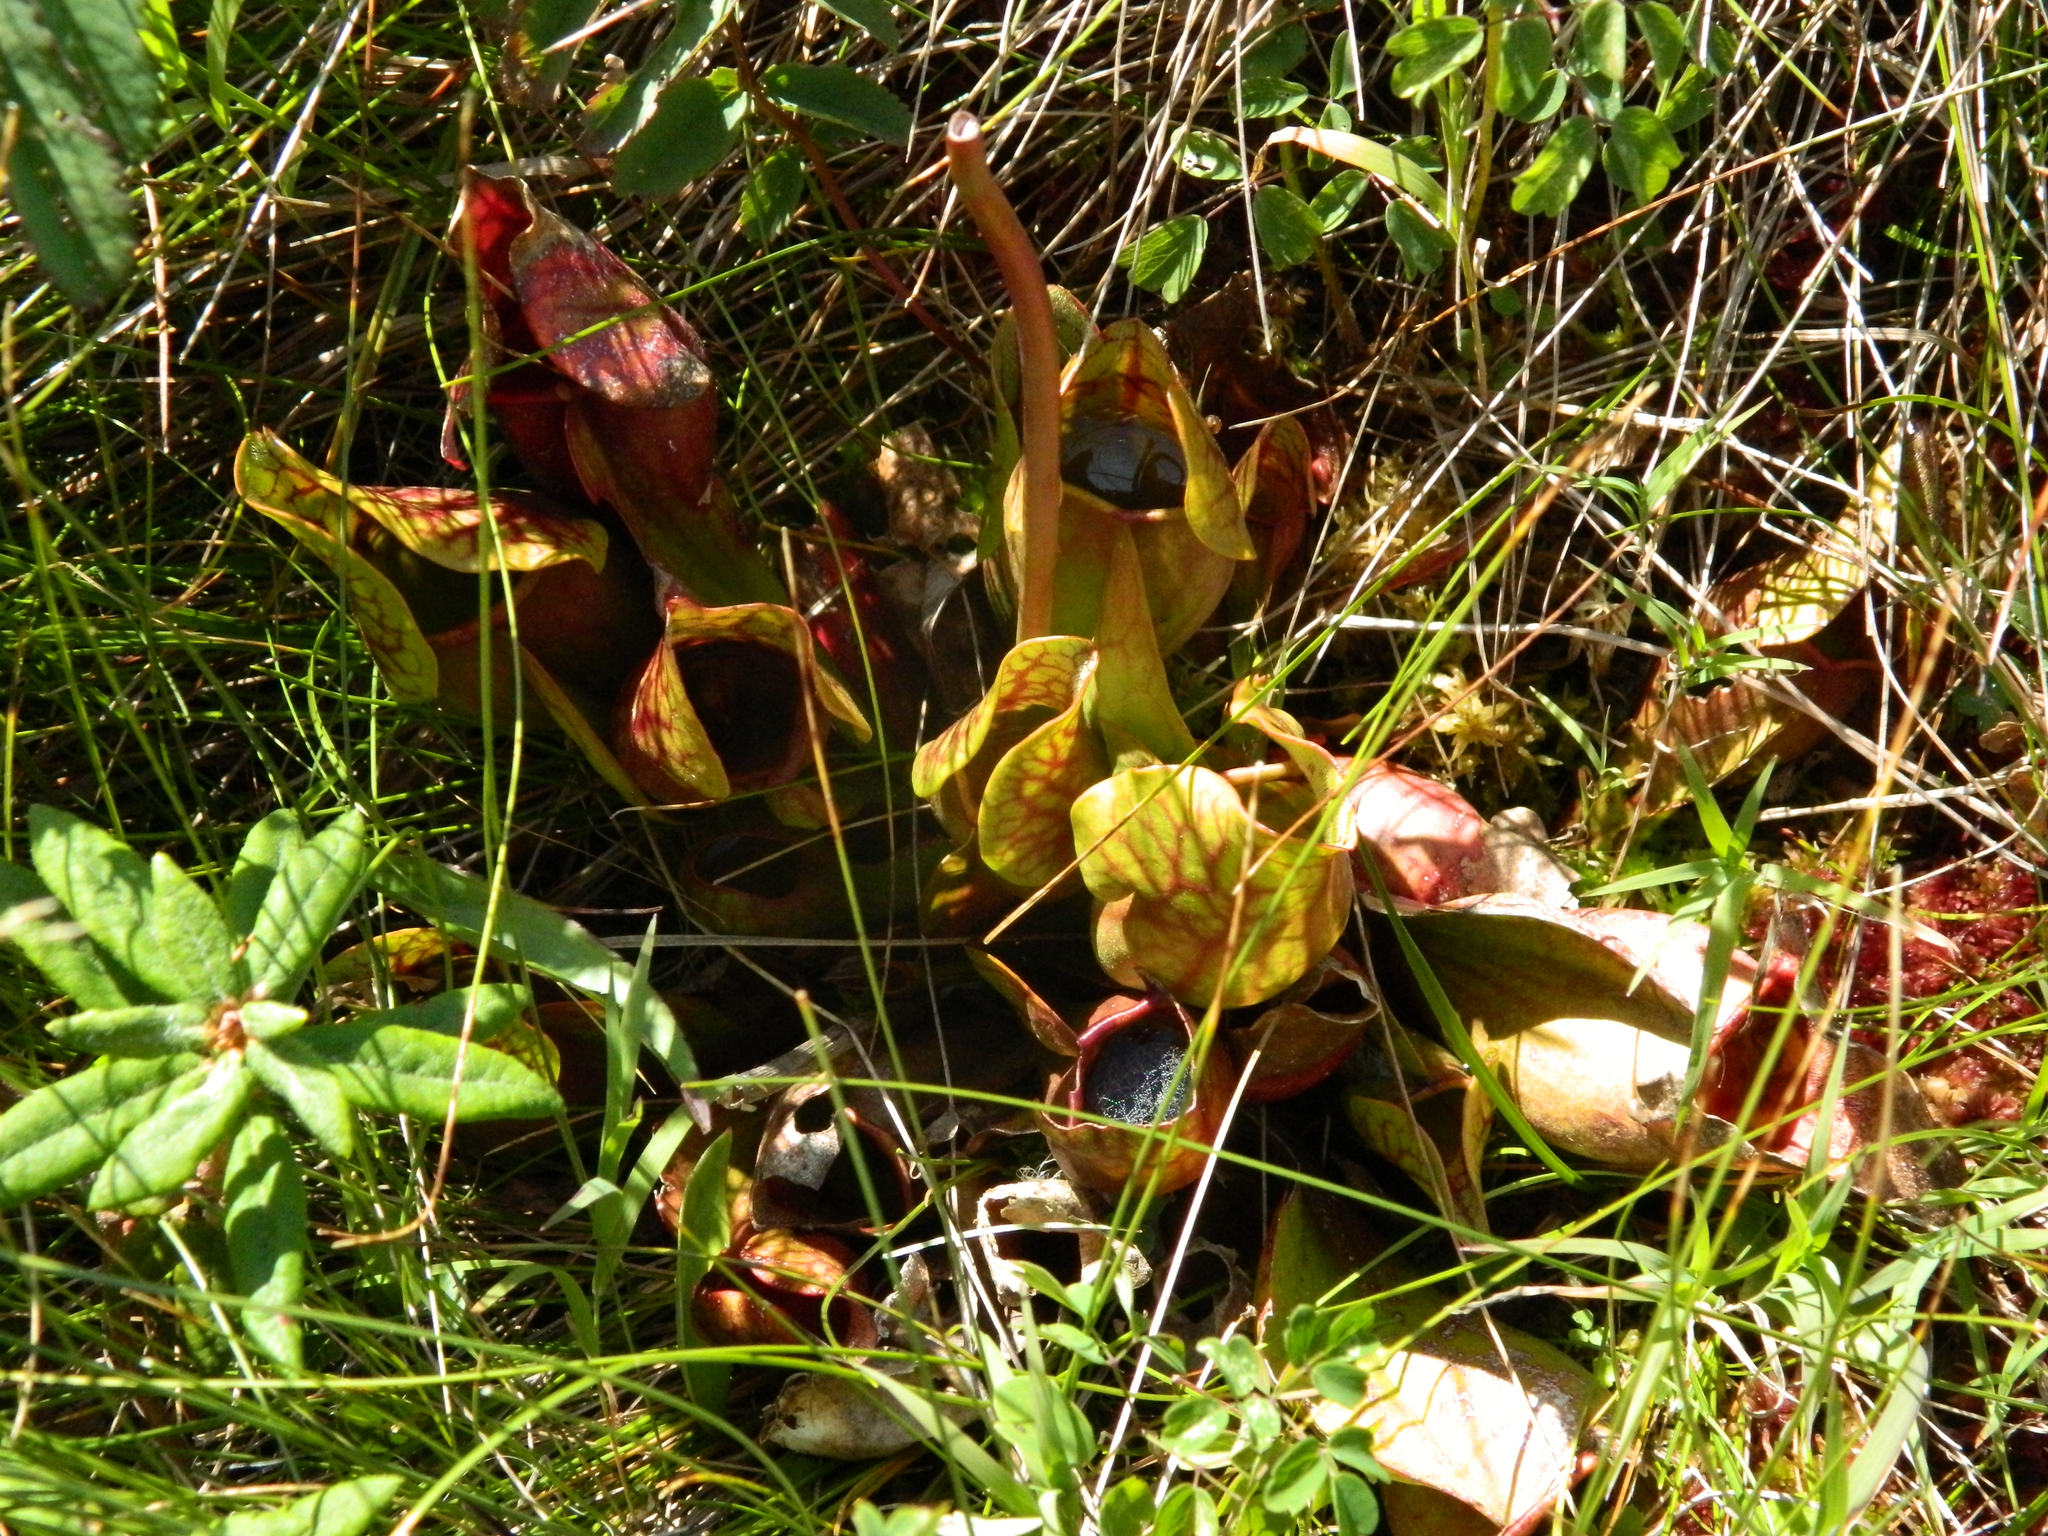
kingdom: Plantae
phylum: Tracheophyta
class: Magnoliopsida
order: Ericales
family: Sarraceniaceae
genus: Sarracenia
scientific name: Sarracenia purpurea
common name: Pitcherplant
